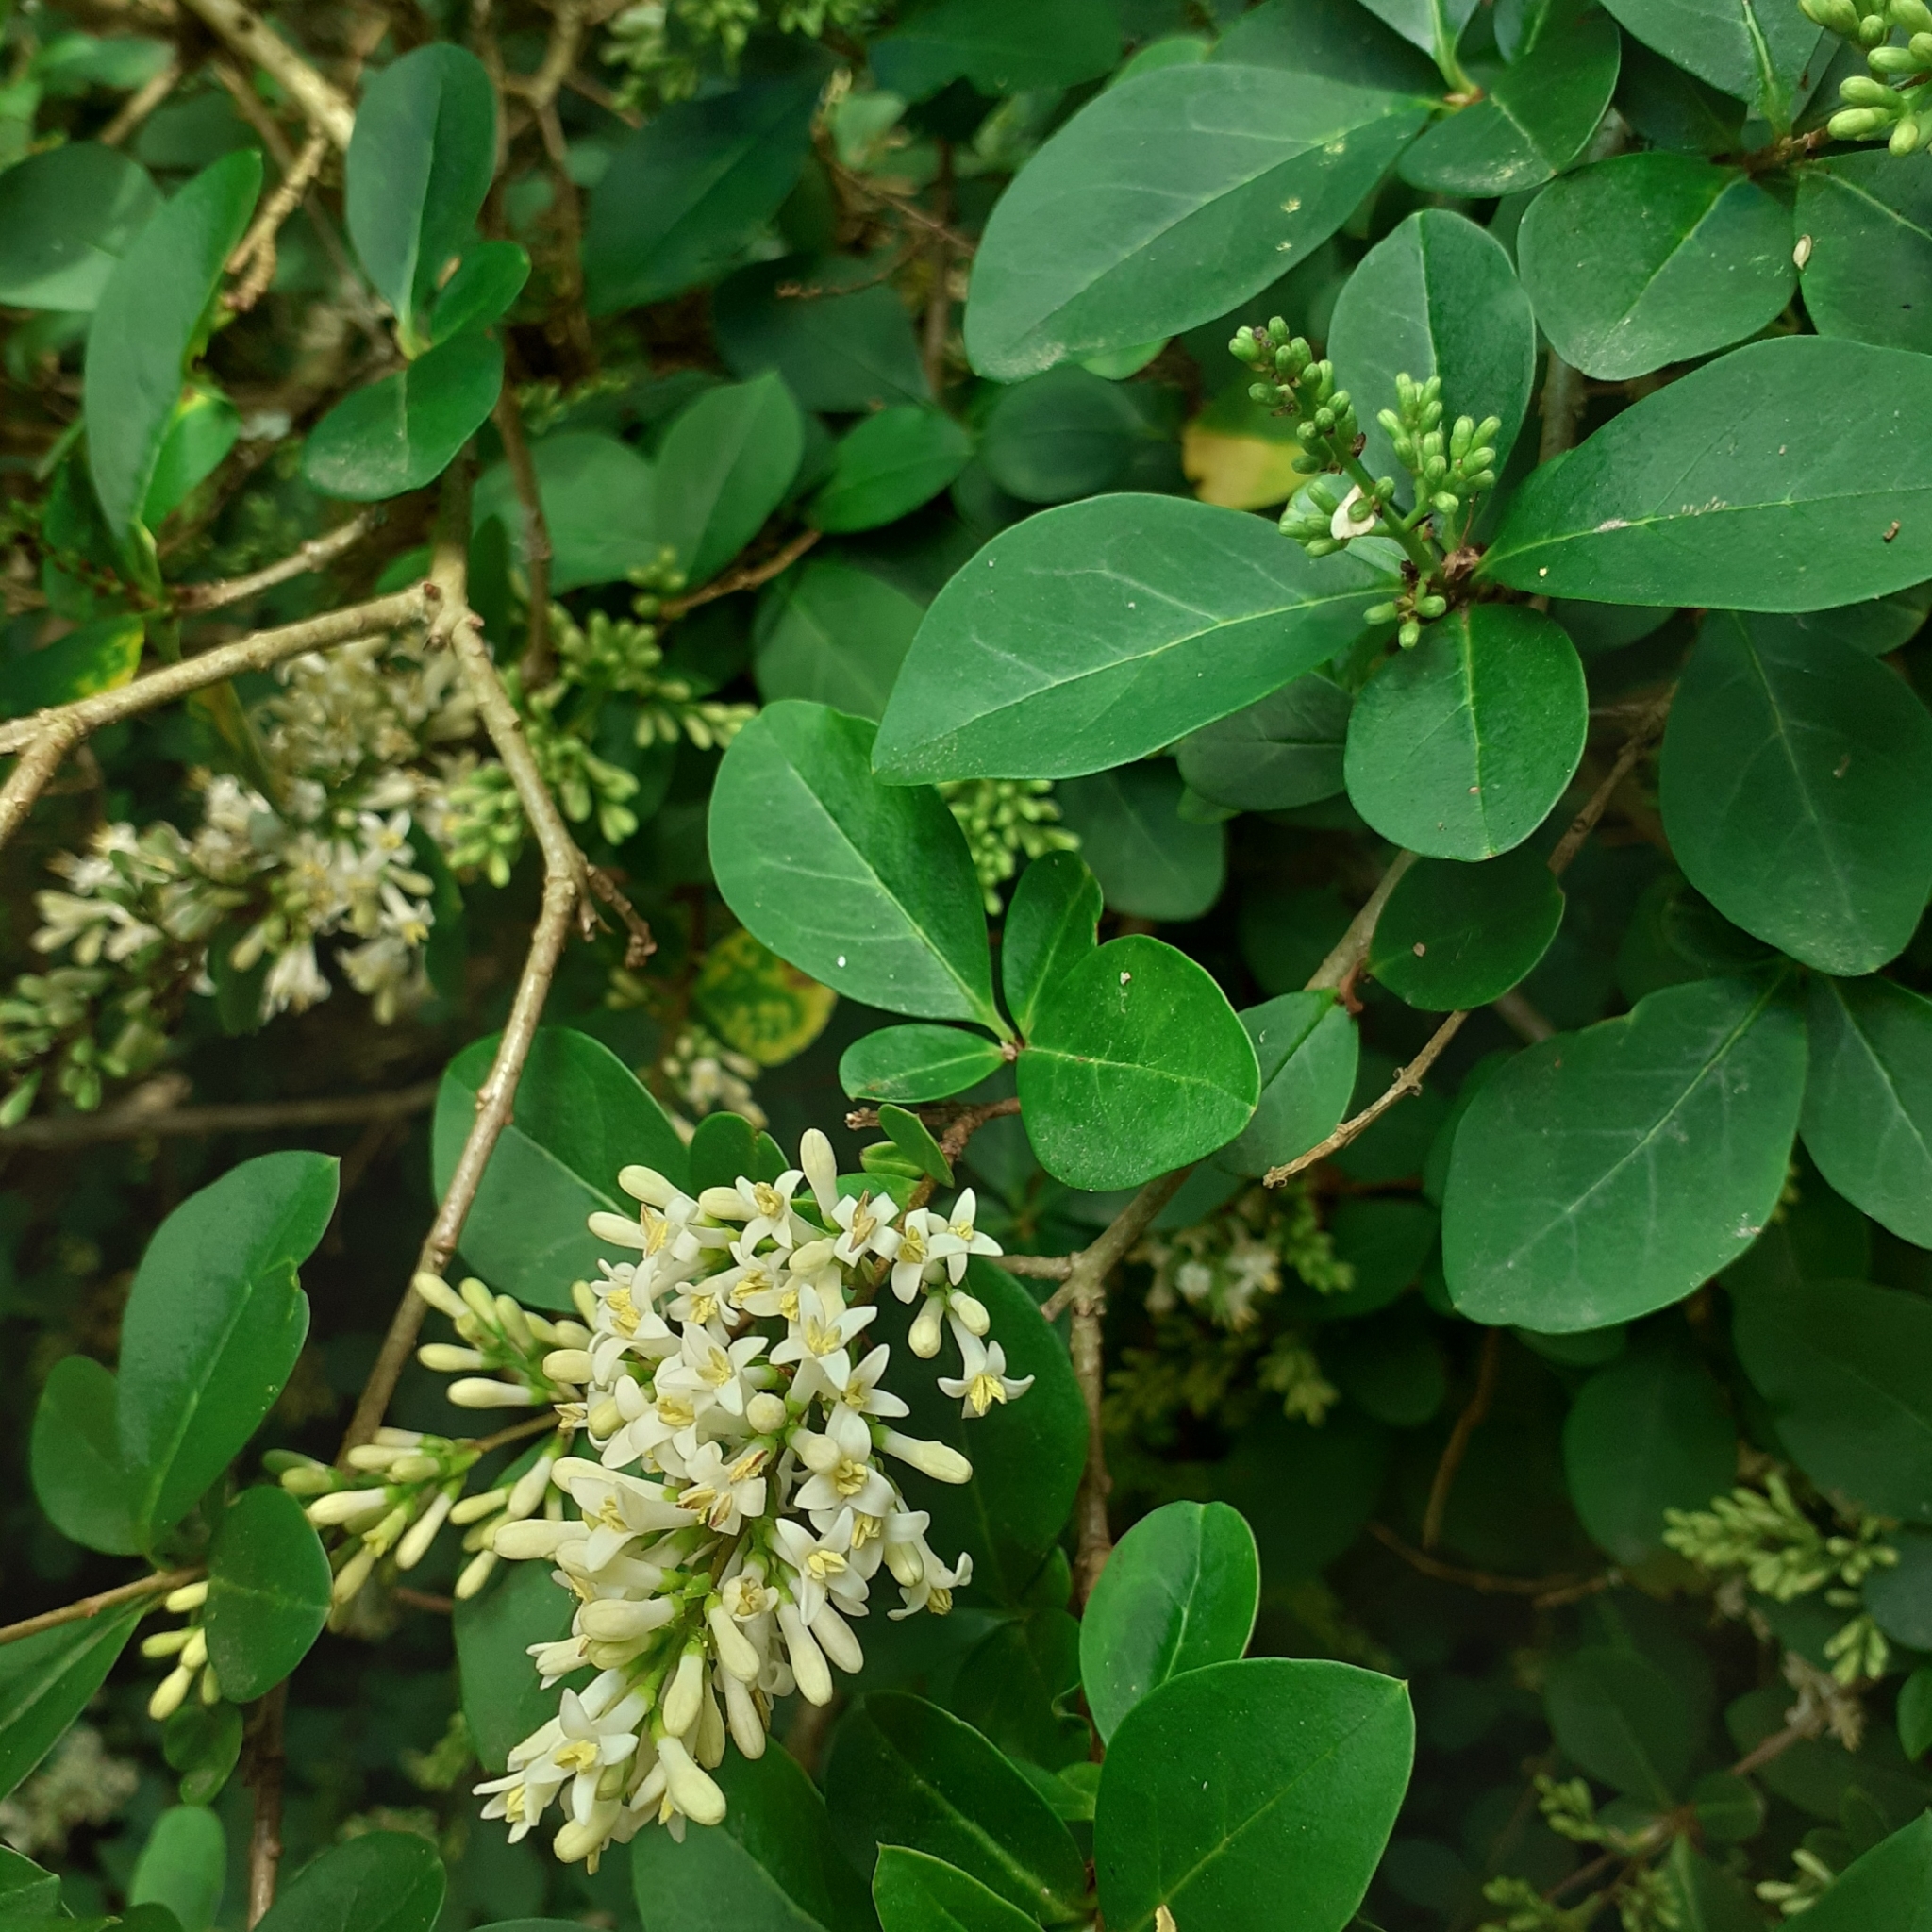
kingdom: Plantae
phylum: Tracheophyta
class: Magnoliopsida
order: Lamiales
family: Oleaceae
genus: Ligustrum
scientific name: Ligustrum vulgare
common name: Wild privet
